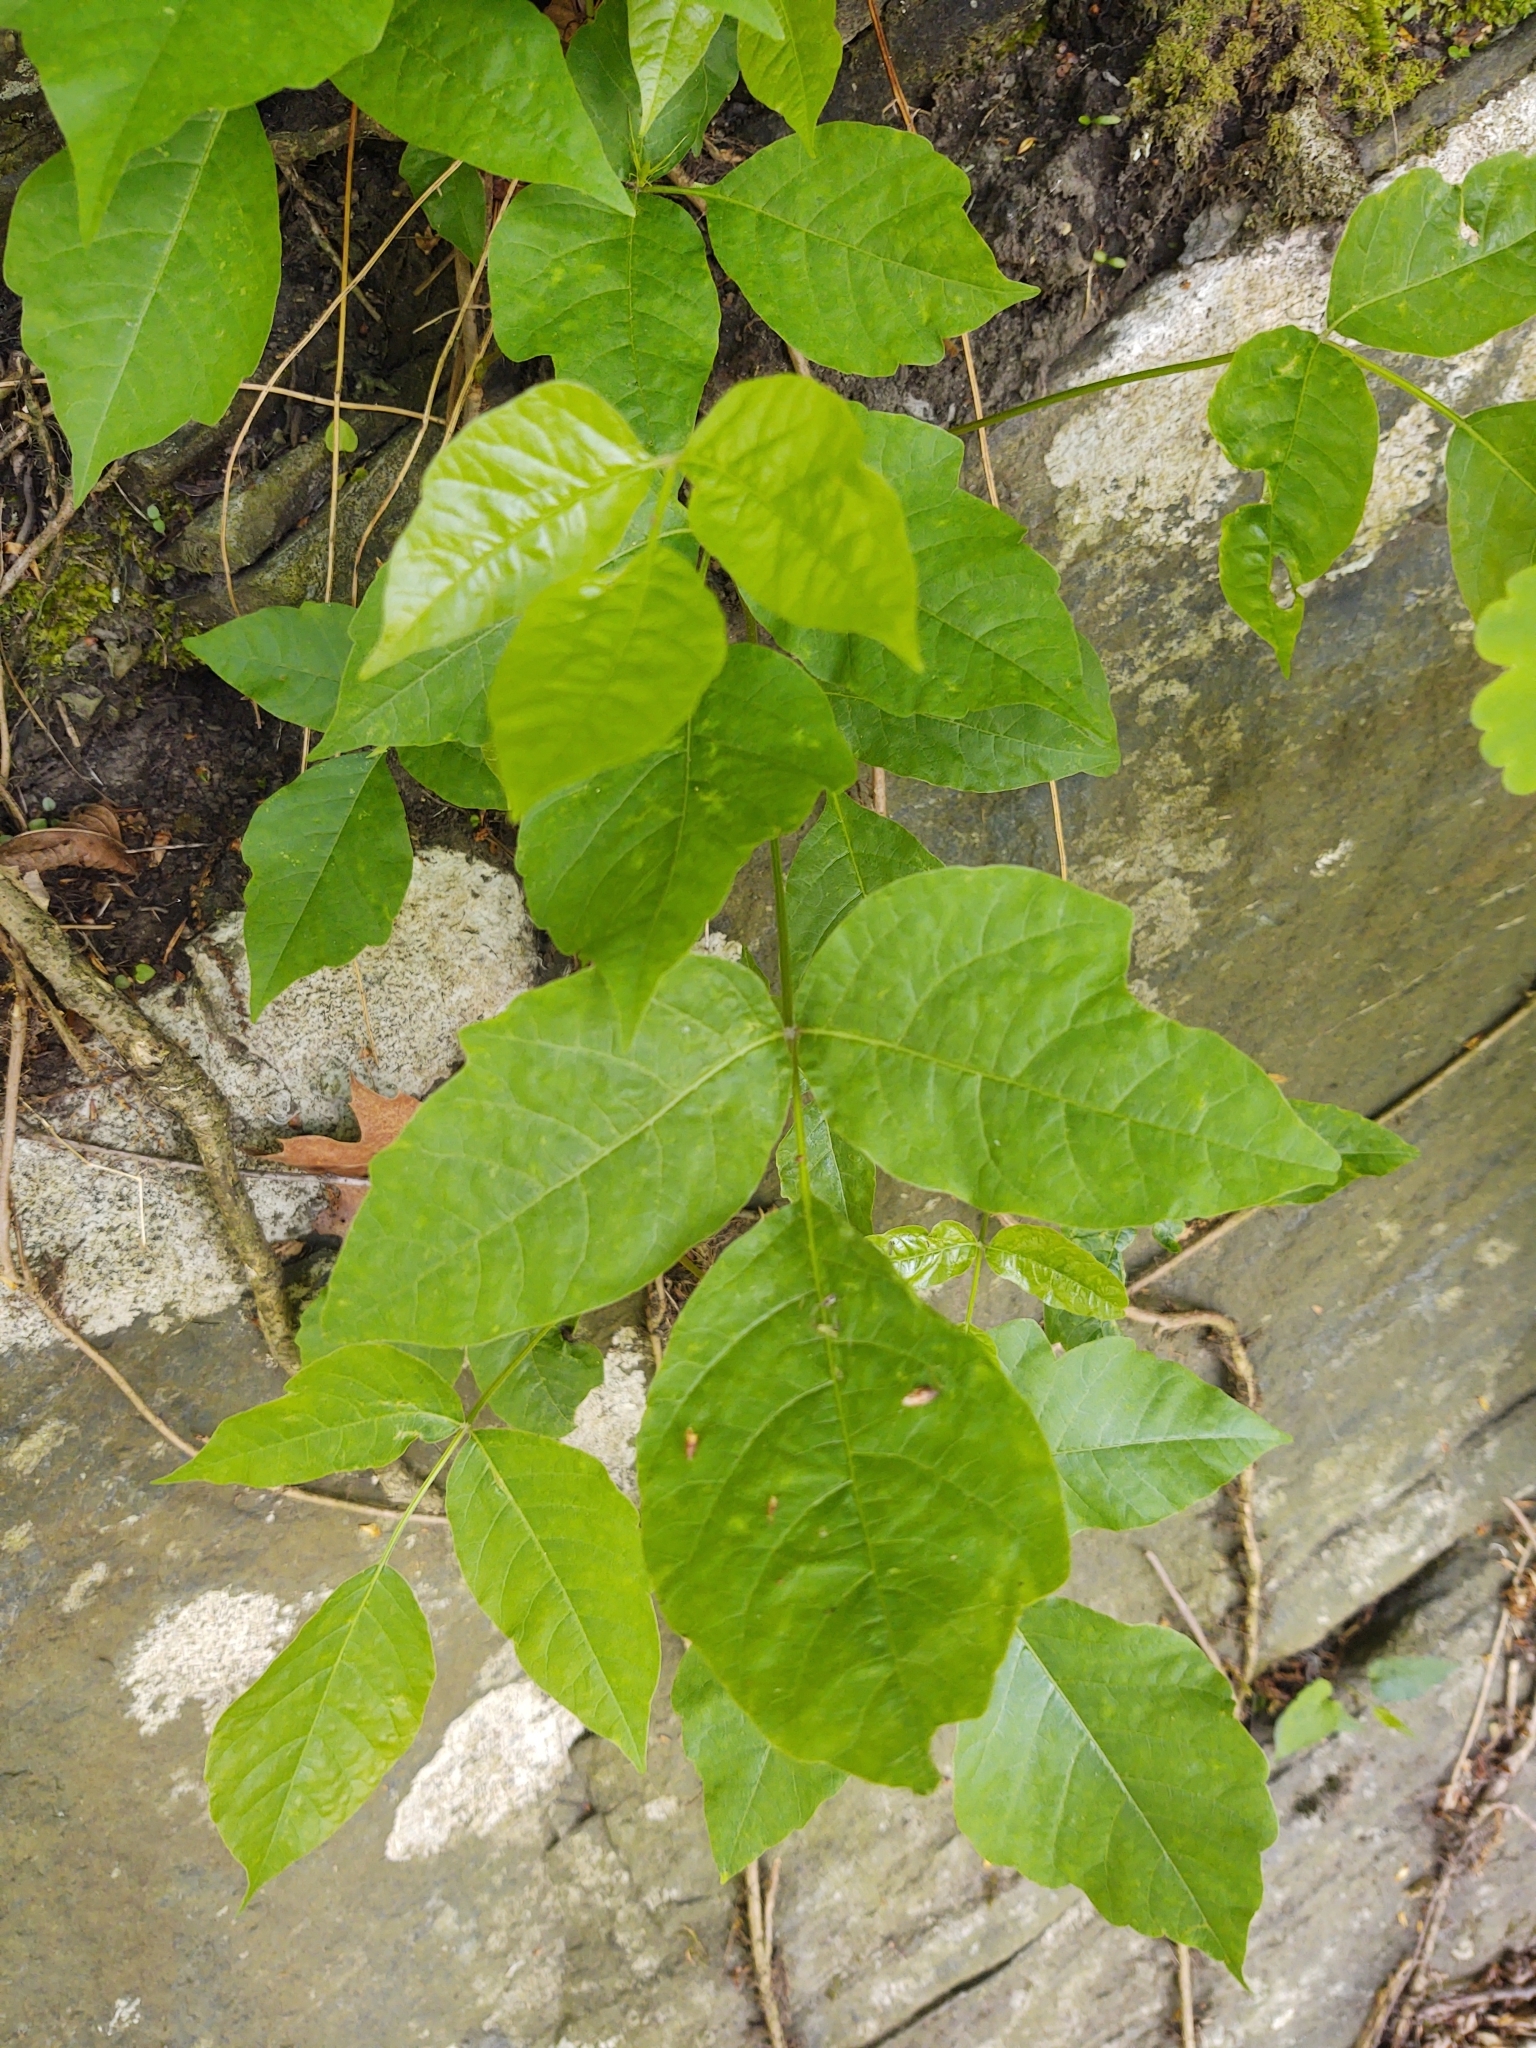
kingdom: Plantae
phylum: Tracheophyta
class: Magnoliopsida
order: Sapindales
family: Anacardiaceae
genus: Toxicodendron
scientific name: Toxicodendron radicans
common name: Poison ivy
